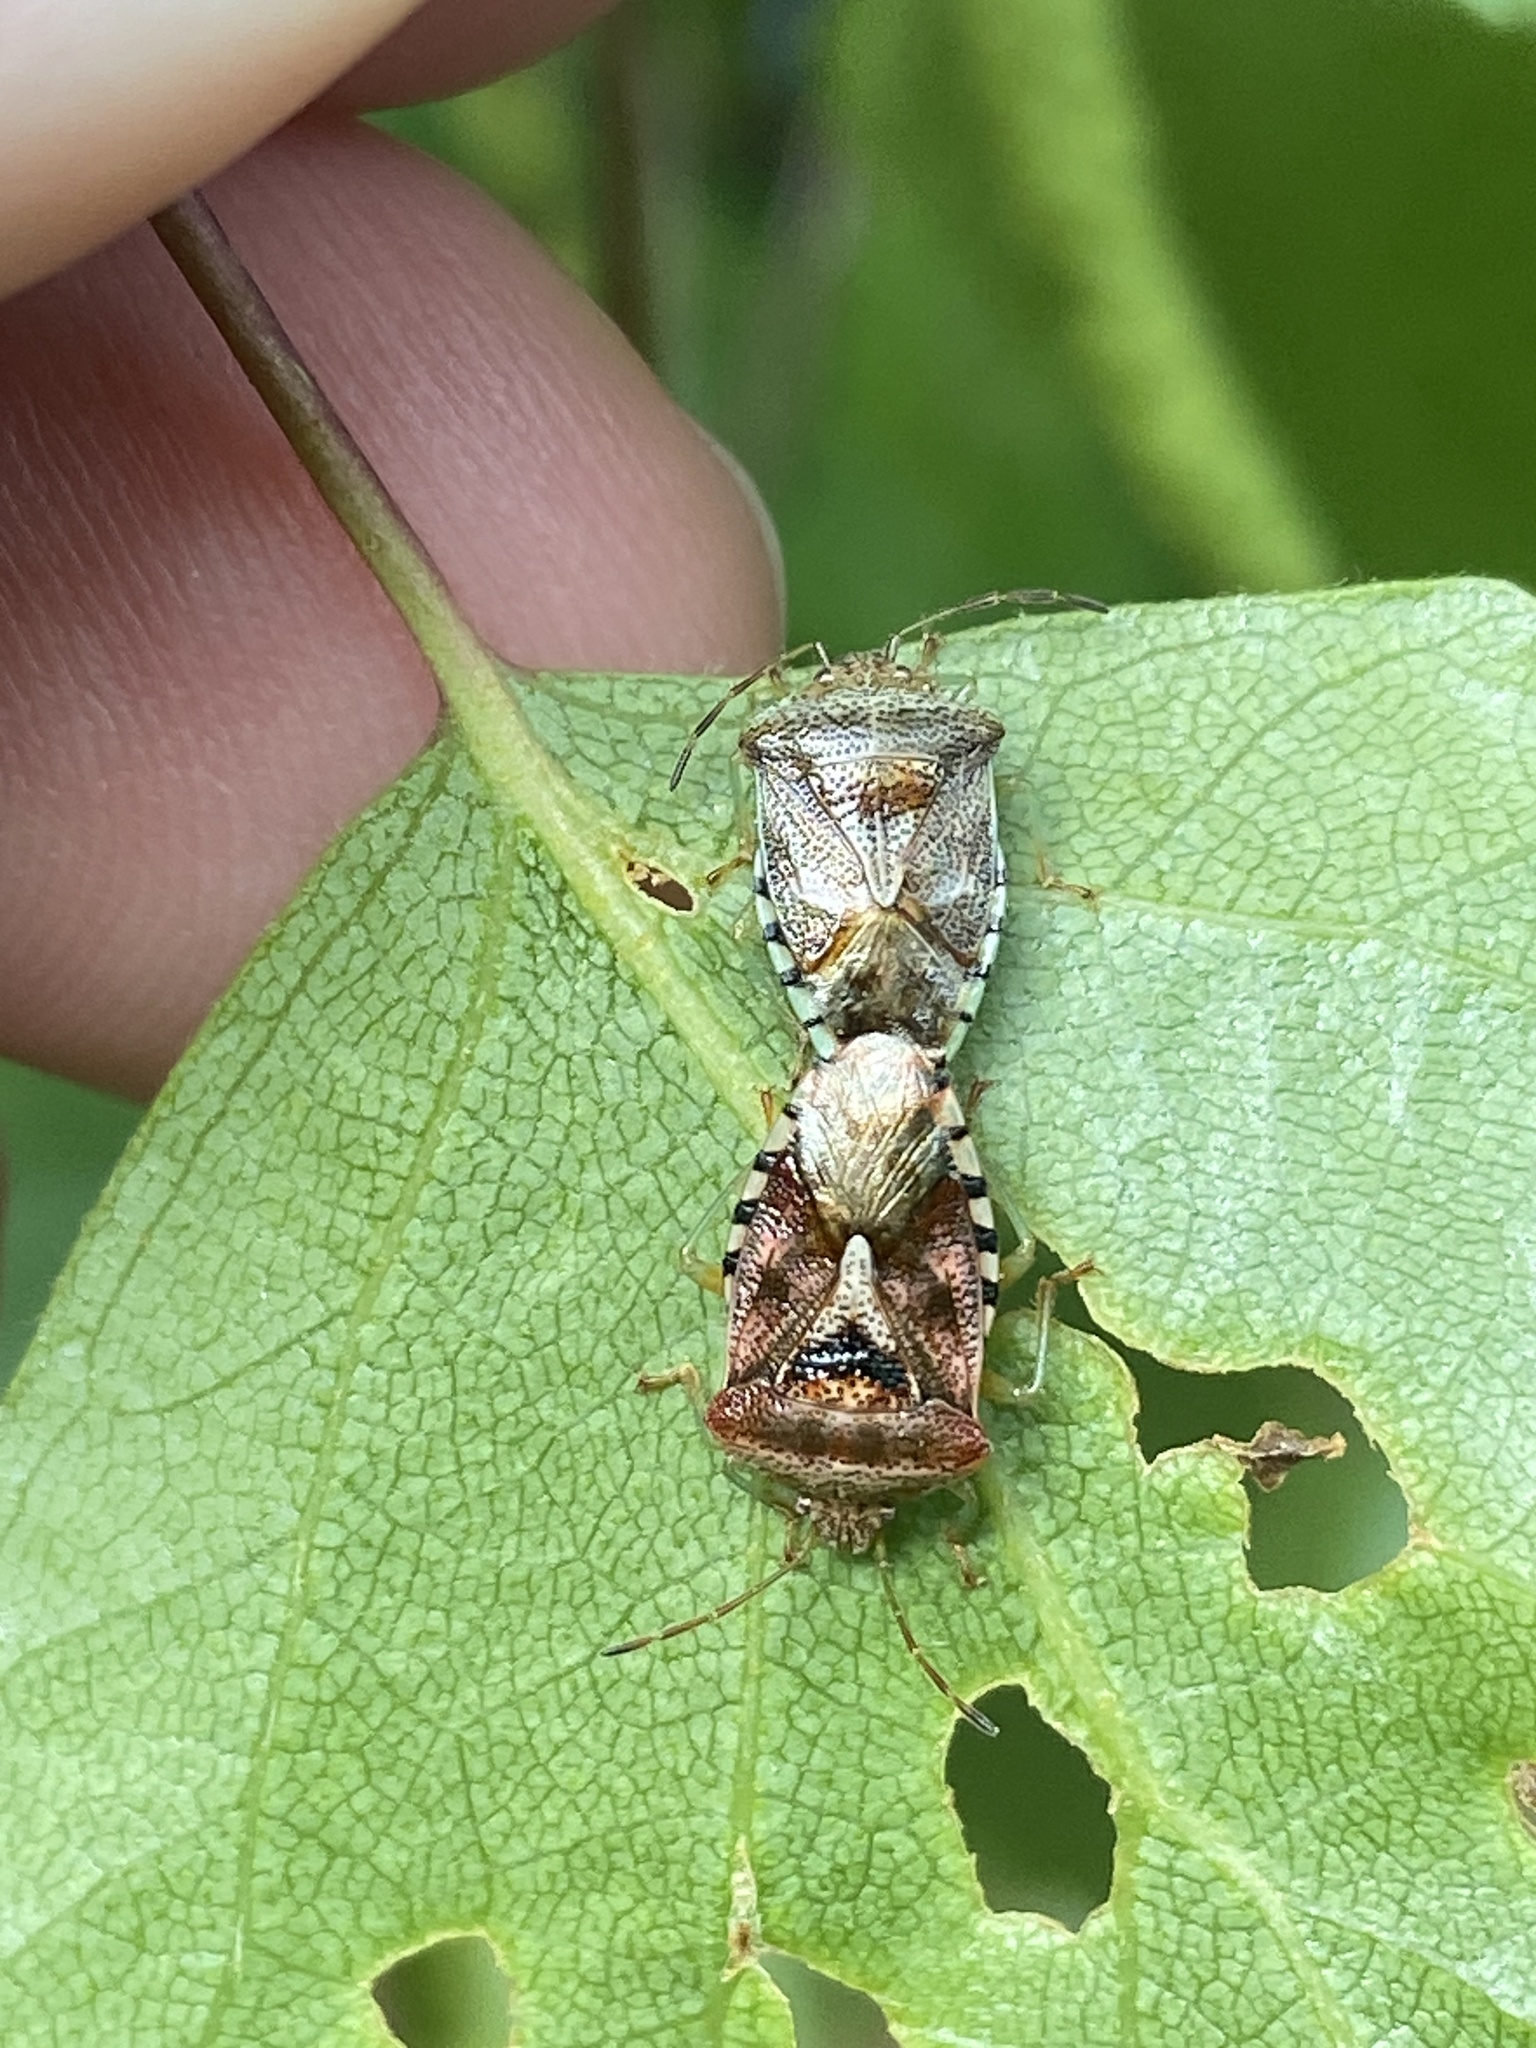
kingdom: Animalia
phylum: Arthropoda
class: Insecta
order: Hemiptera
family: Acanthosomatidae
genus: Elasmucha
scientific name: Elasmucha grisea
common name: Parent bug
